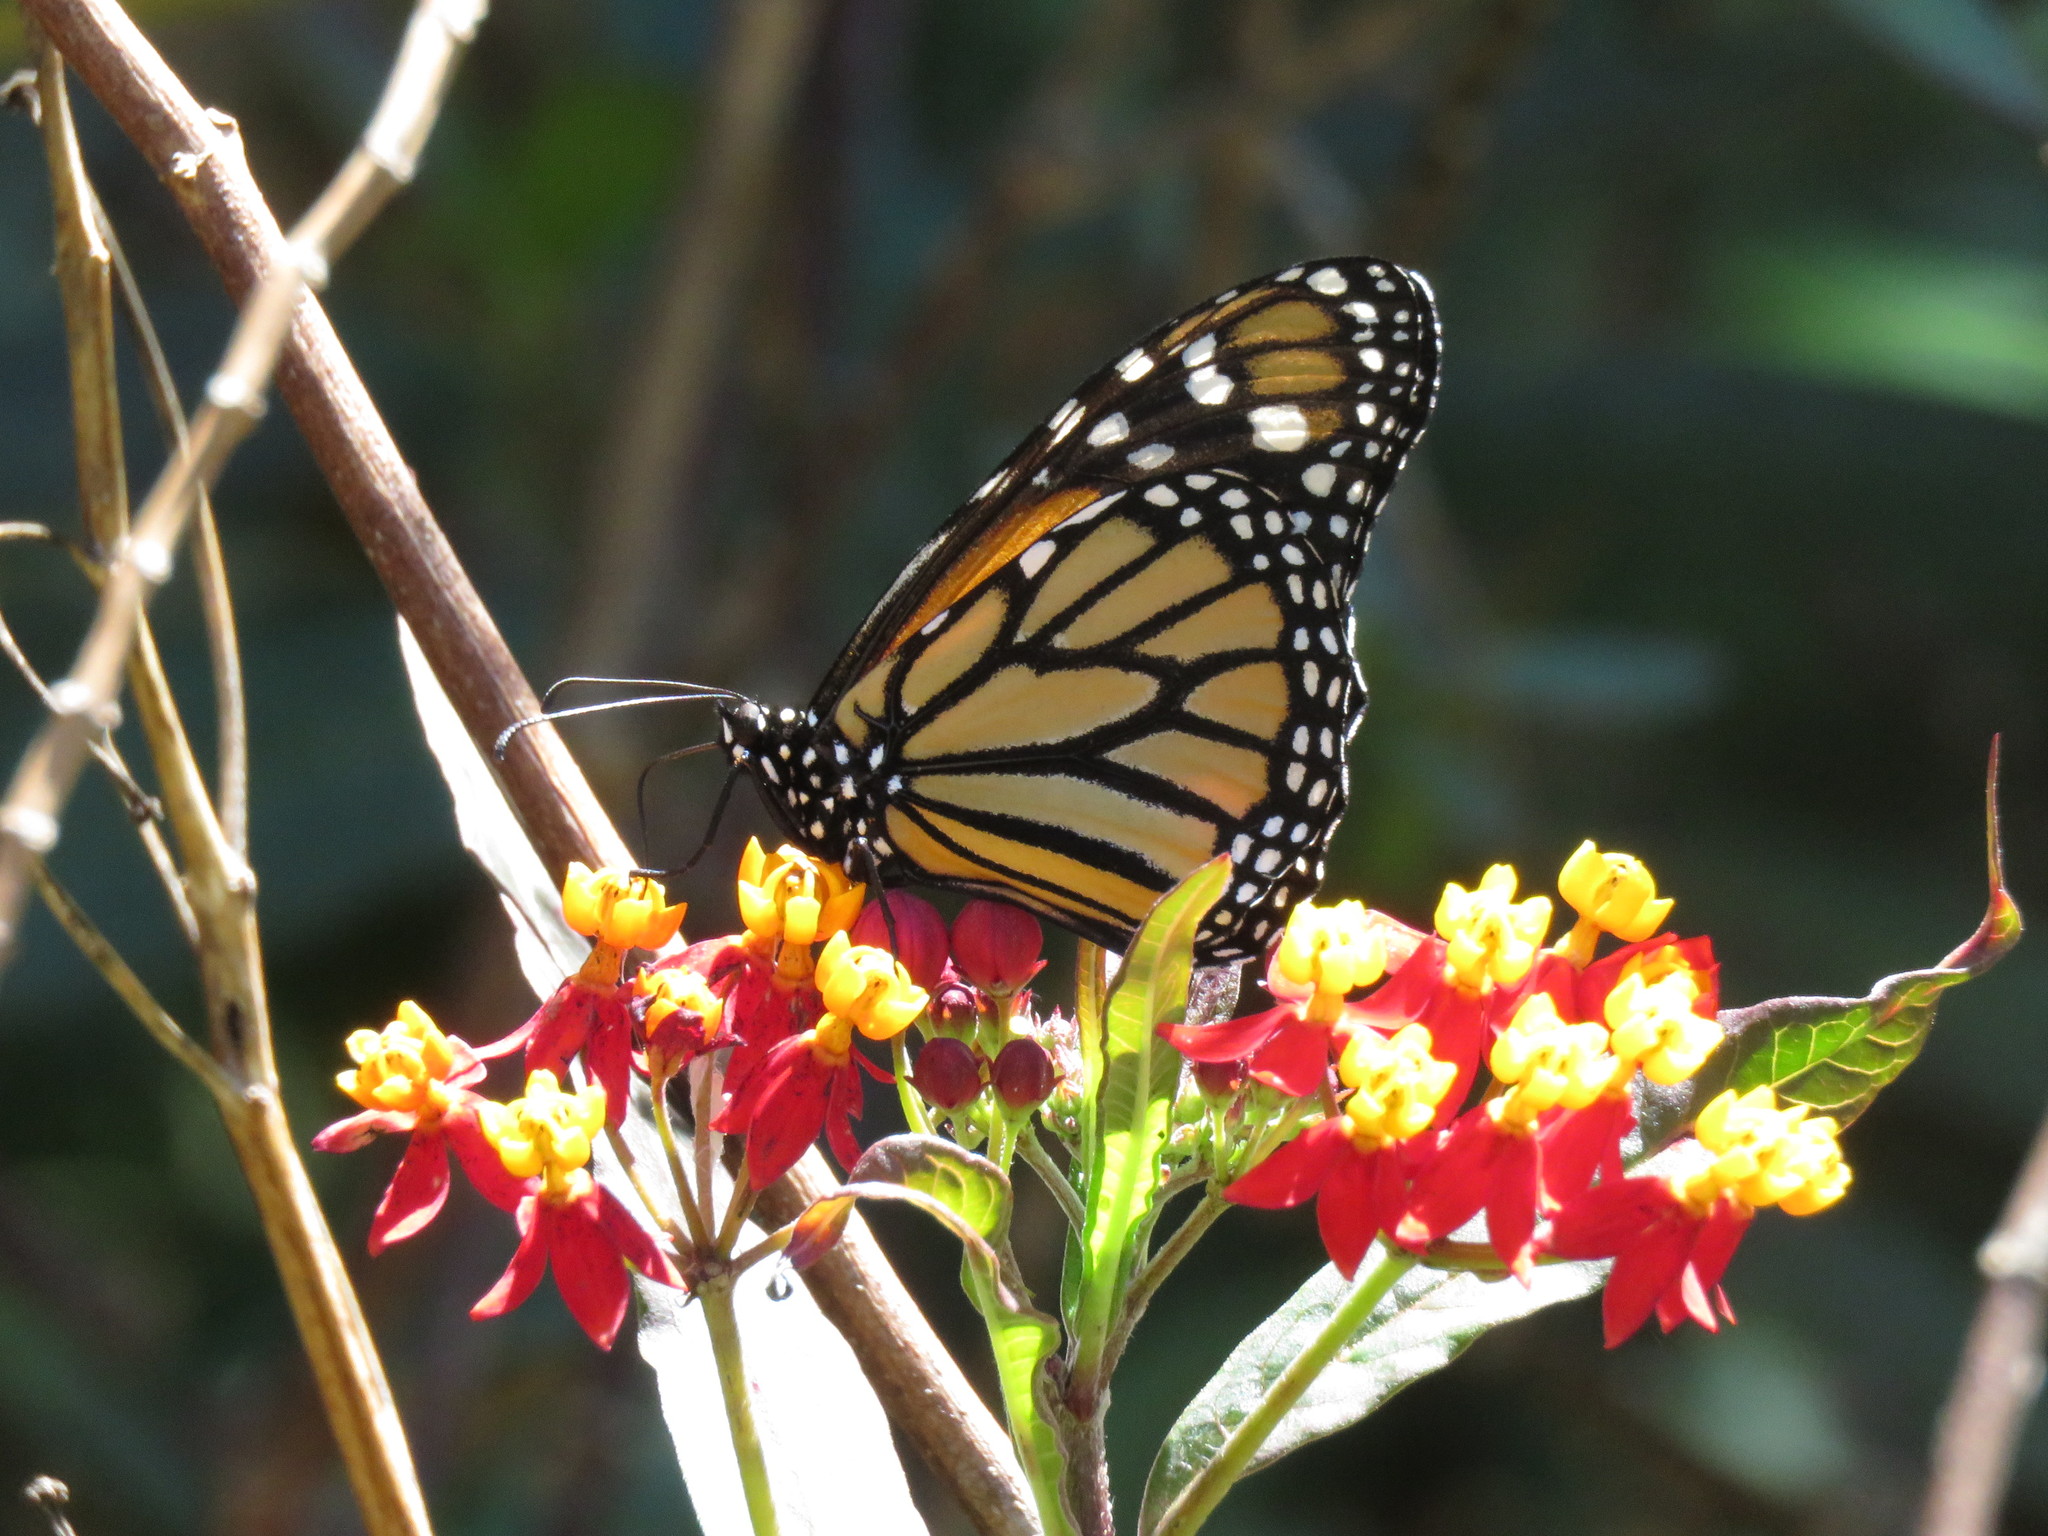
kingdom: Animalia
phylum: Arthropoda
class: Insecta
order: Lepidoptera
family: Nymphalidae
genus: Danaus
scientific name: Danaus plexippus
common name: Monarch
